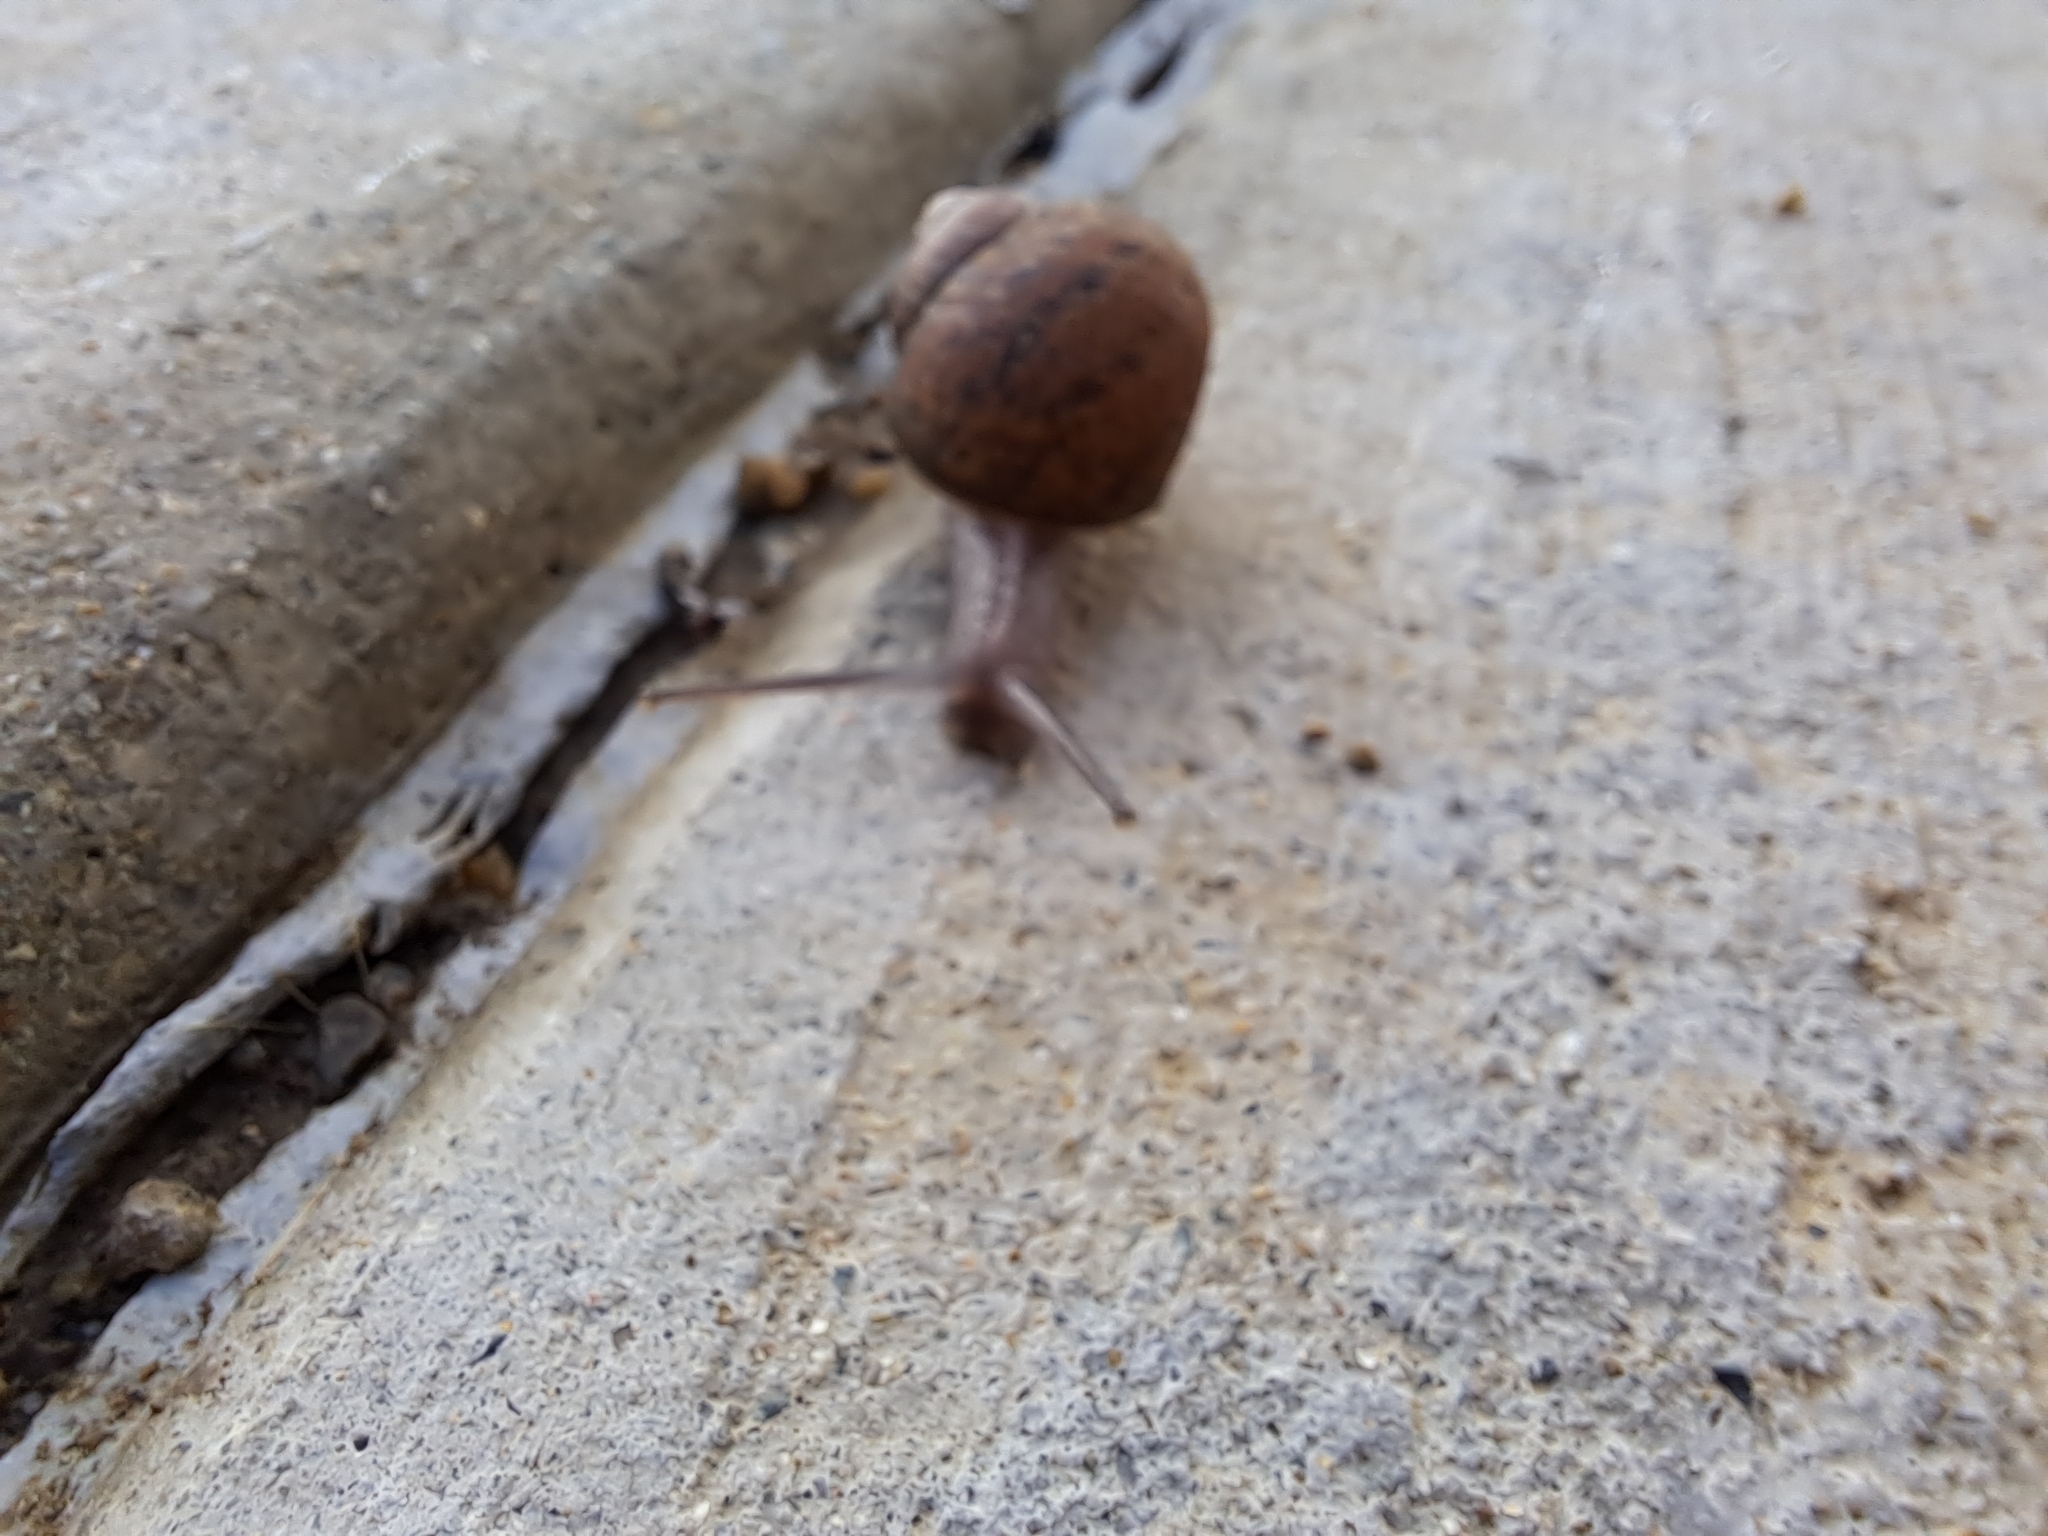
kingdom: Animalia
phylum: Mollusca
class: Gastropoda
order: Stylommatophora
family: Helicidae
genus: Cornu
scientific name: Cornu aspersum
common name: Brown garden snail
